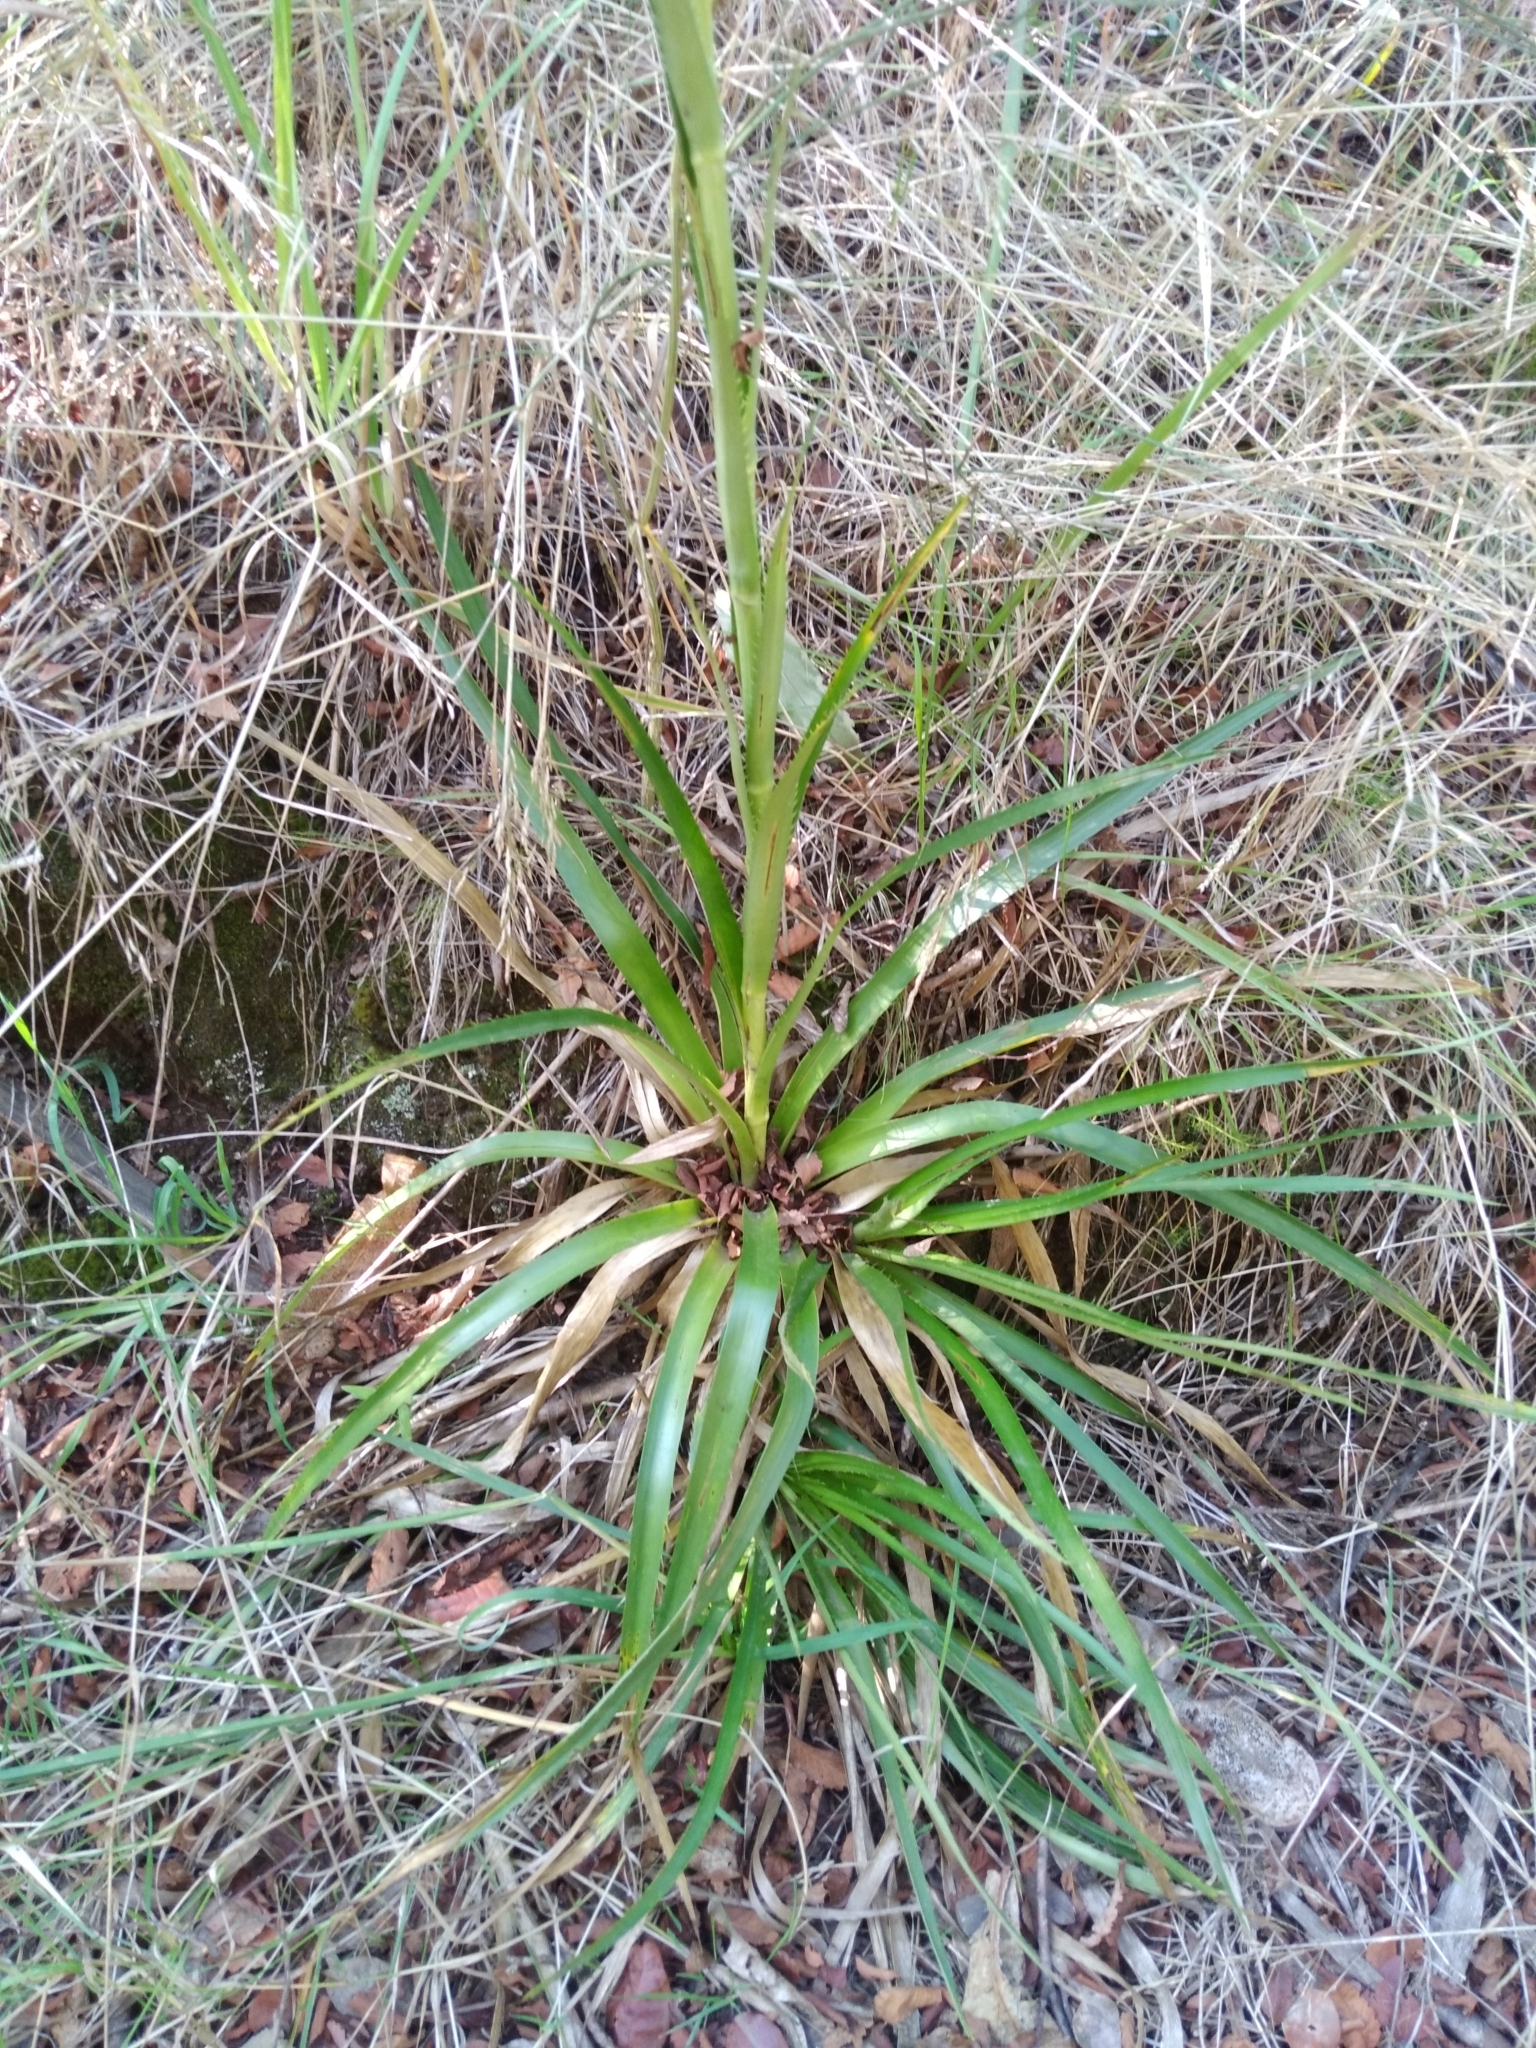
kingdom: Plantae
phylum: Tracheophyta
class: Magnoliopsida
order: Apiales
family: Apiaceae
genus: Eryngium
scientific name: Eryngium humboldtii
